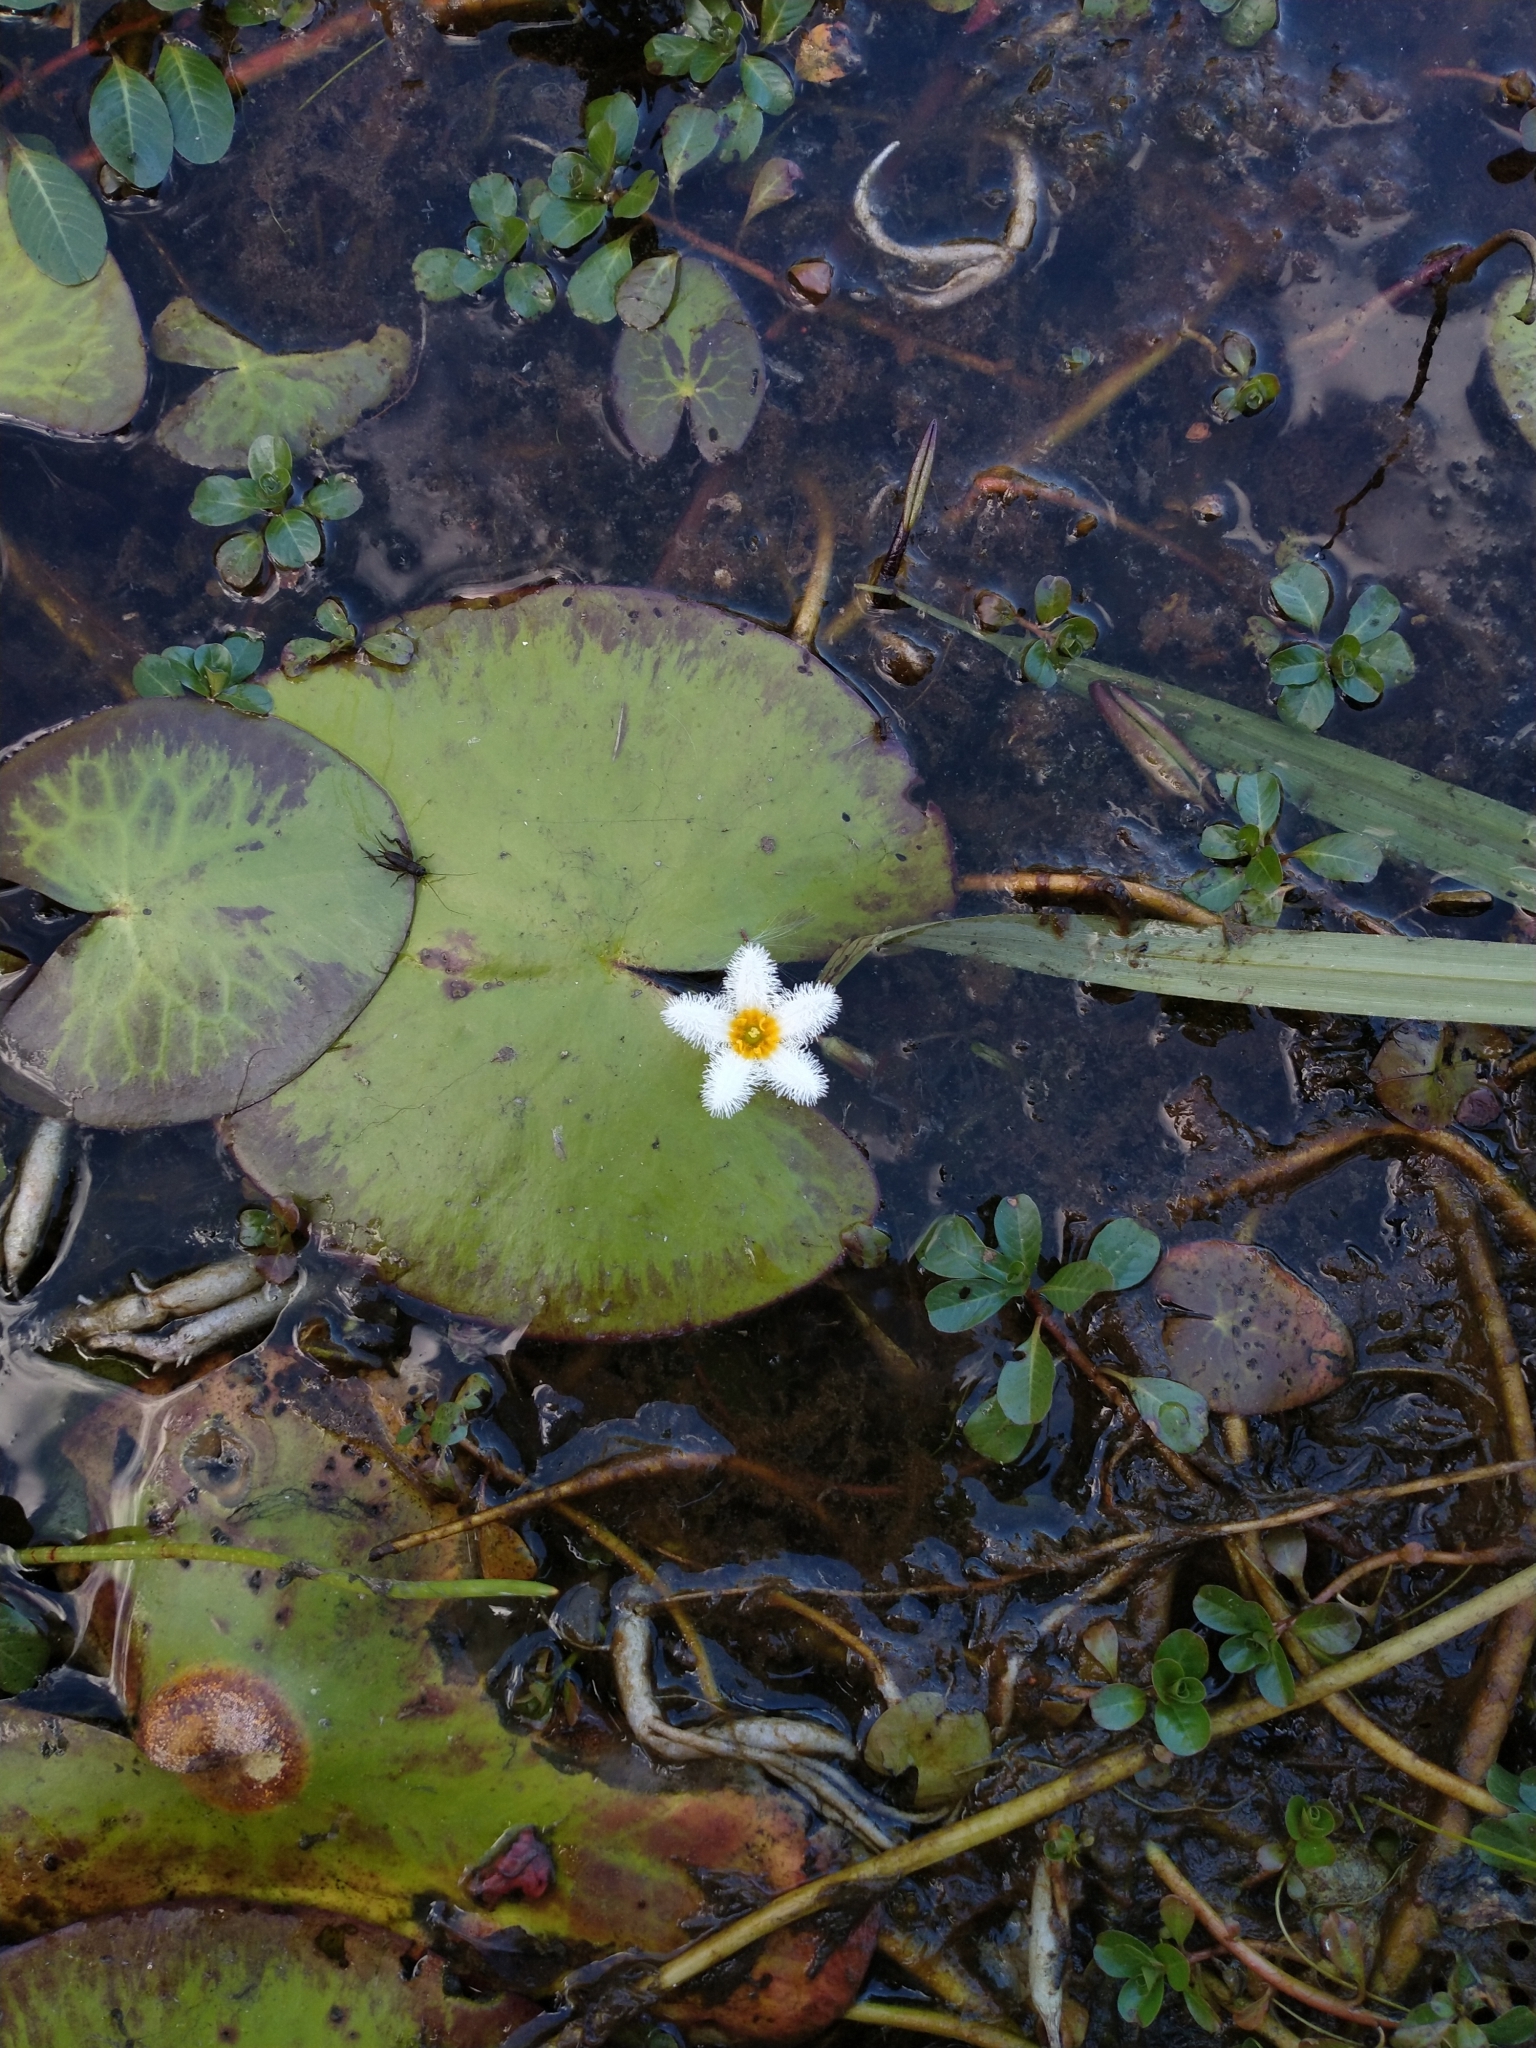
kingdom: Plantae
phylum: Tracheophyta
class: Magnoliopsida
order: Asterales
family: Menyanthaceae
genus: Nymphoides
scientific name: Nymphoides indica
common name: Water-snowflake
